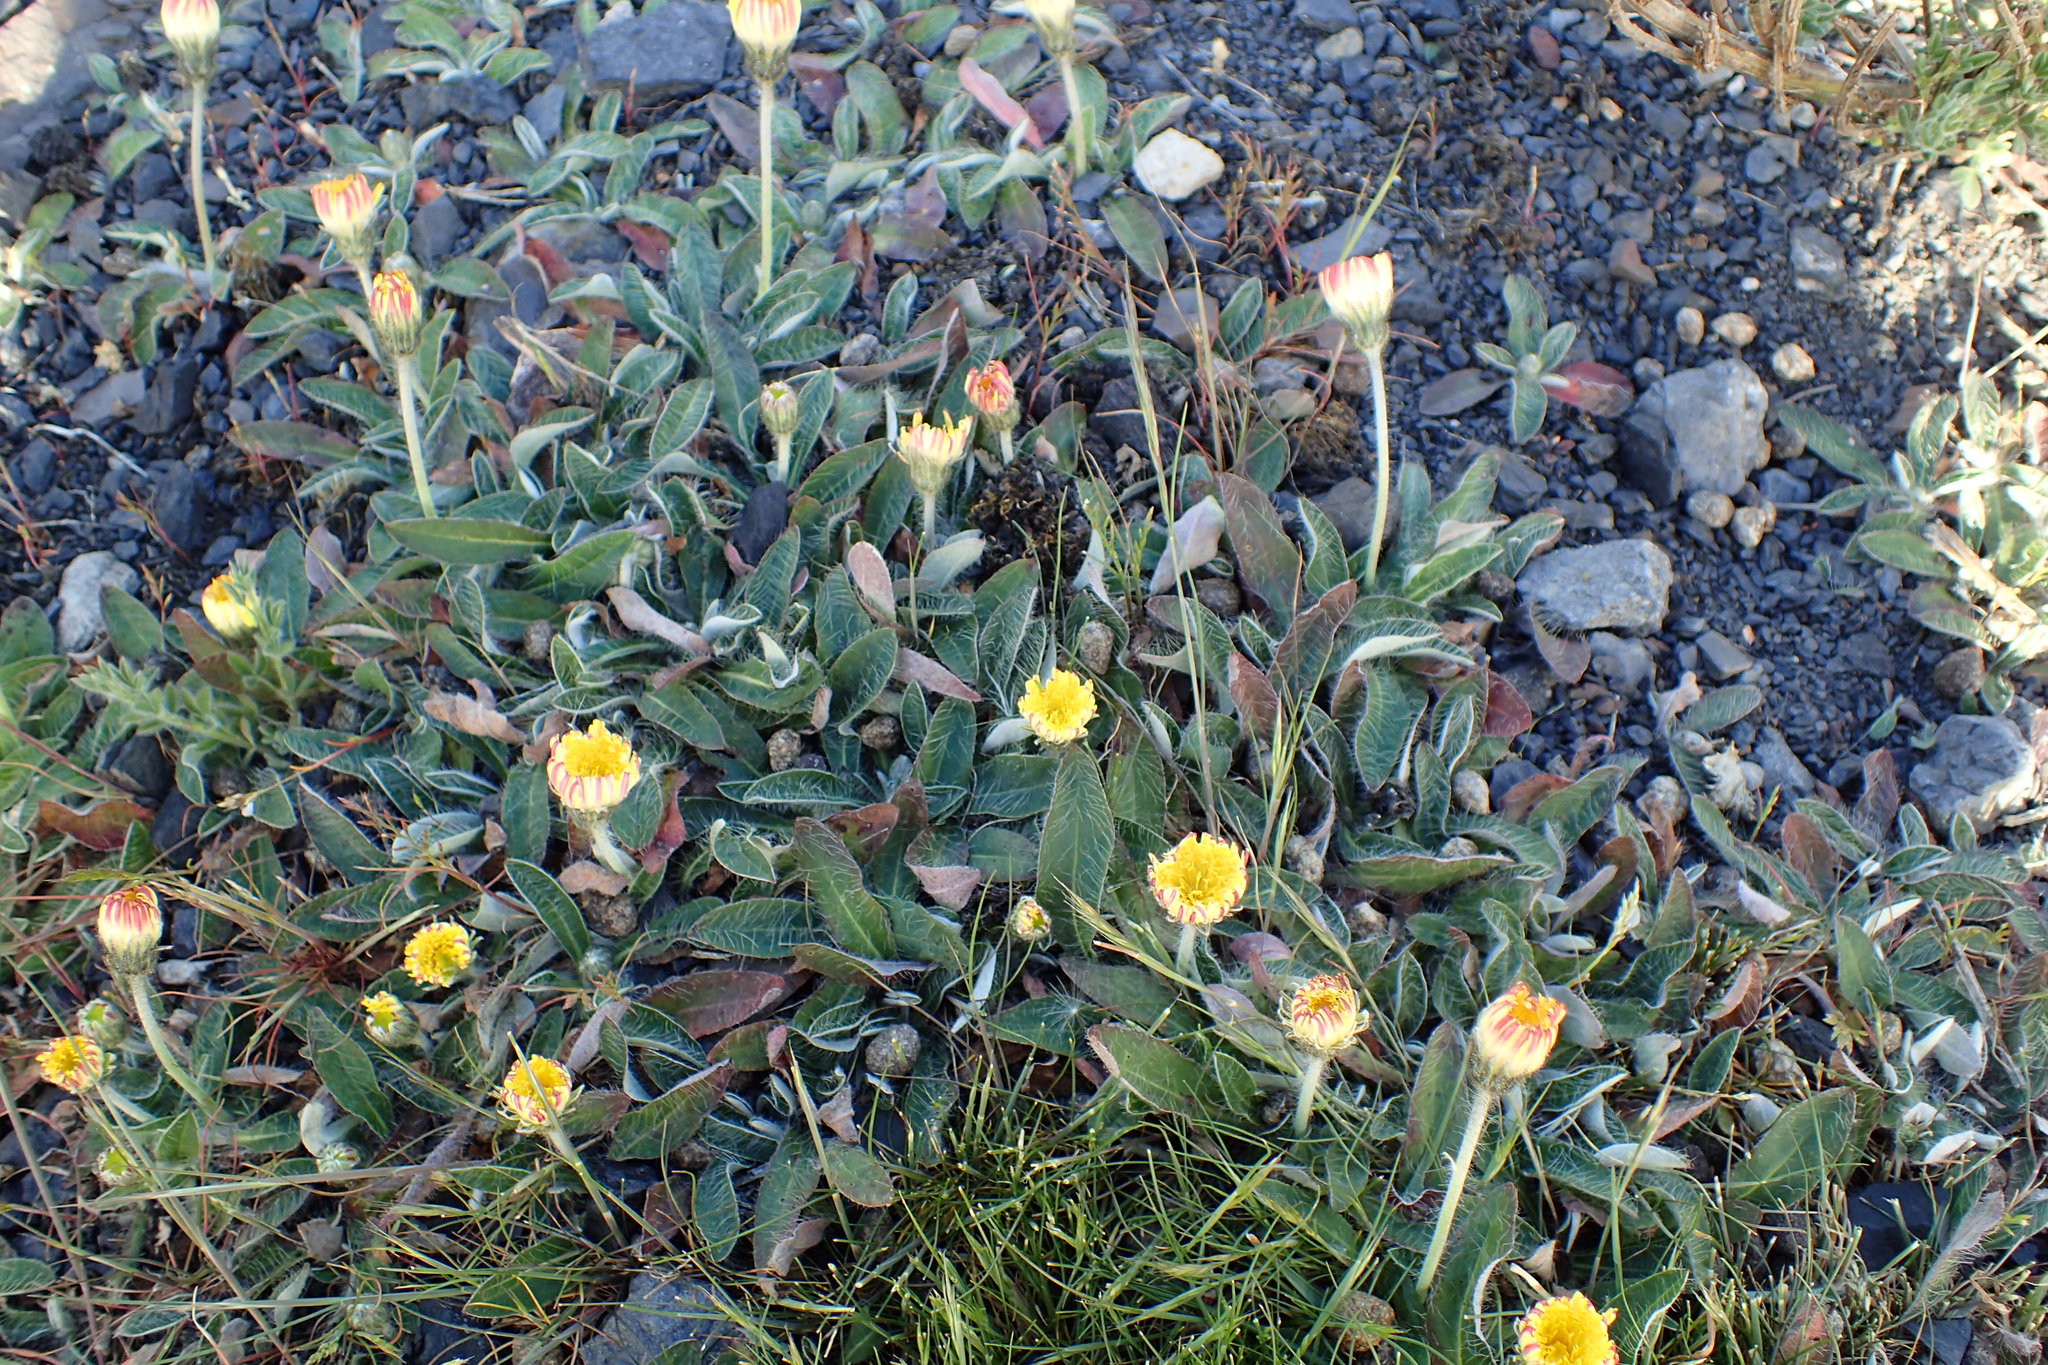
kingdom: Plantae
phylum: Tracheophyta
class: Magnoliopsida
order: Asterales
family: Asteraceae
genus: Pilosella
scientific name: Pilosella officinarum
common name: Mouse-ear hawkweed
